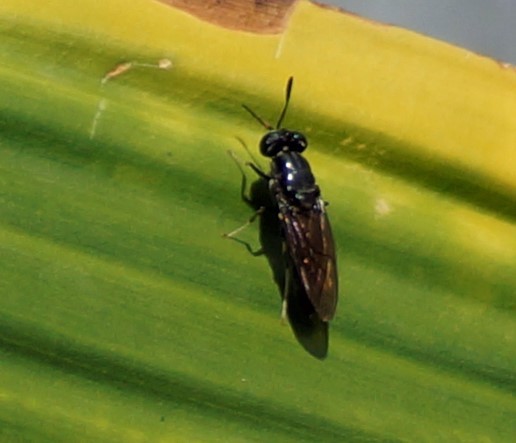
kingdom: Animalia
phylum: Arthropoda
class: Insecta
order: Diptera
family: Stratiomyidae
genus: Hermetia
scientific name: Hermetia illucens
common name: Black soldier fly
